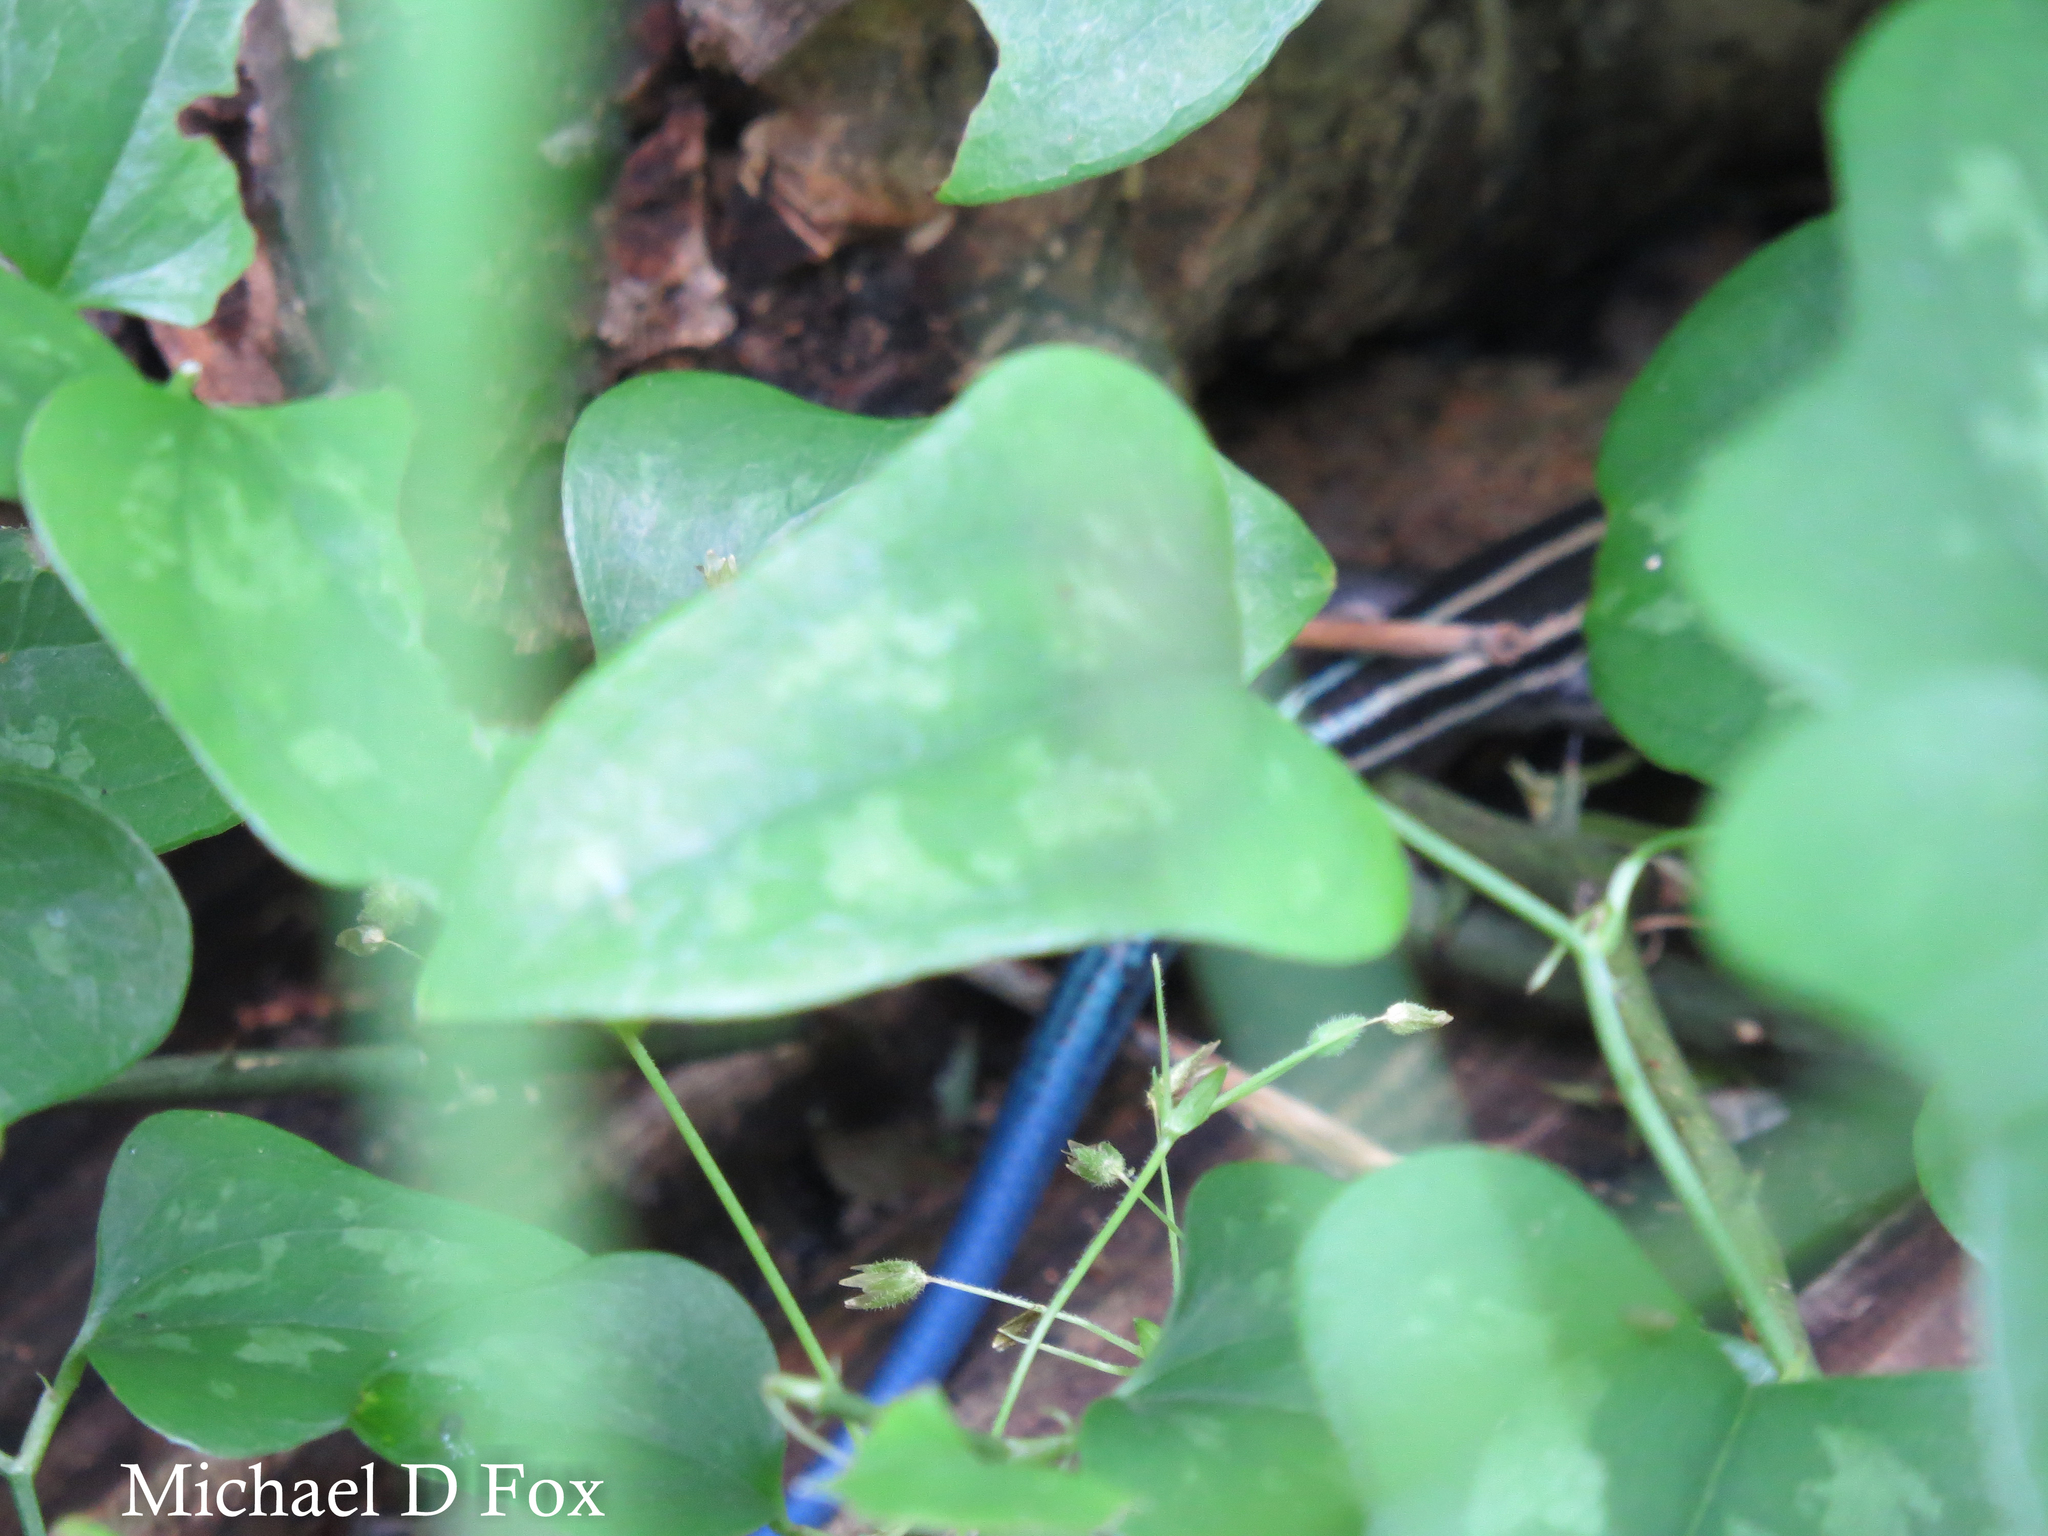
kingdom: Animalia
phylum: Chordata
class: Squamata
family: Scincidae
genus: Plestiodon
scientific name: Plestiodon fasciatus
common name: Five-lined skink
